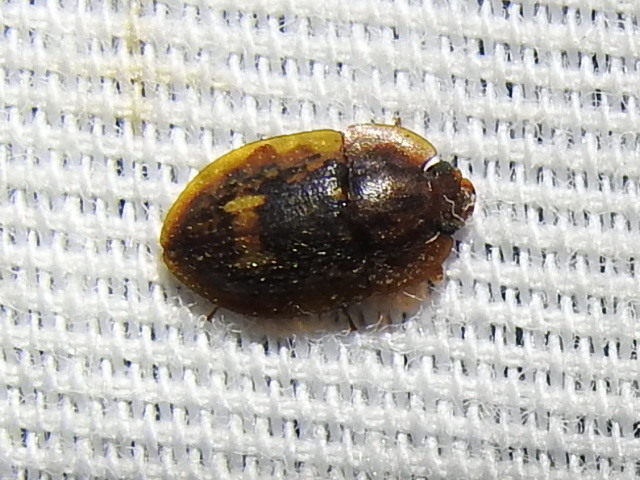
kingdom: Animalia
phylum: Arthropoda
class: Insecta
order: Coleoptera
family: Nitidulidae
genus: Lobiopa
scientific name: Lobiopa insularis
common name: Sap beetle
